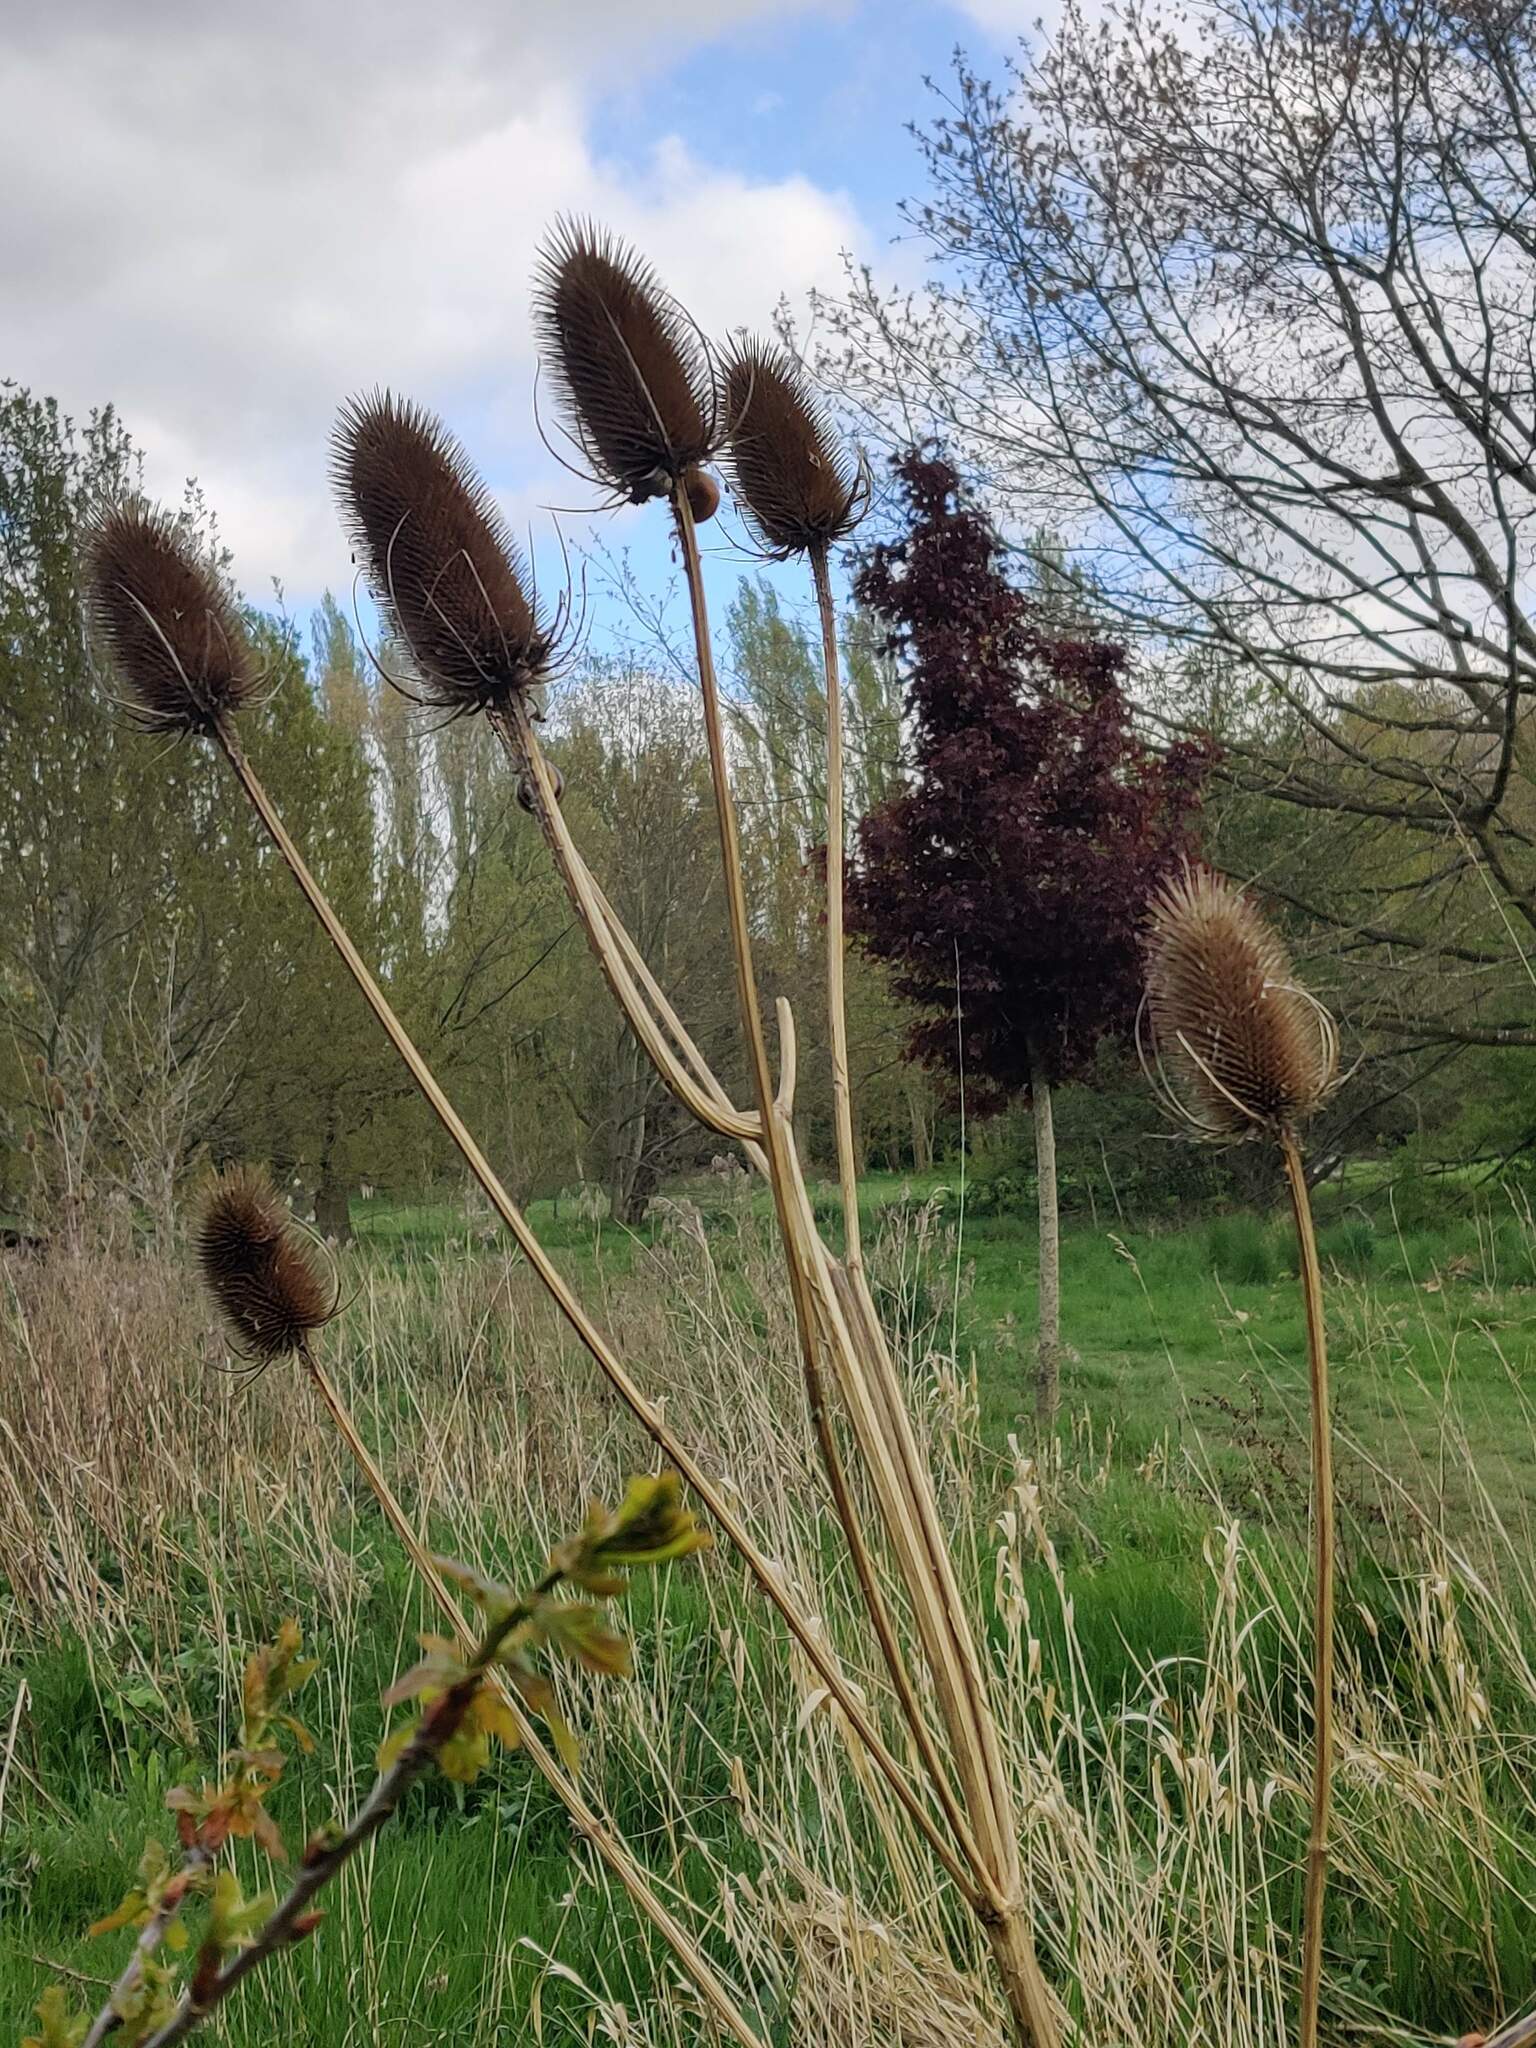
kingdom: Plantae
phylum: Tracheophyta
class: Magnoliopsida
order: Dipsacales
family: Caprifoliaceae
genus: Dipsacus
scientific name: Dipsacus fullonum
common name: Teasel
